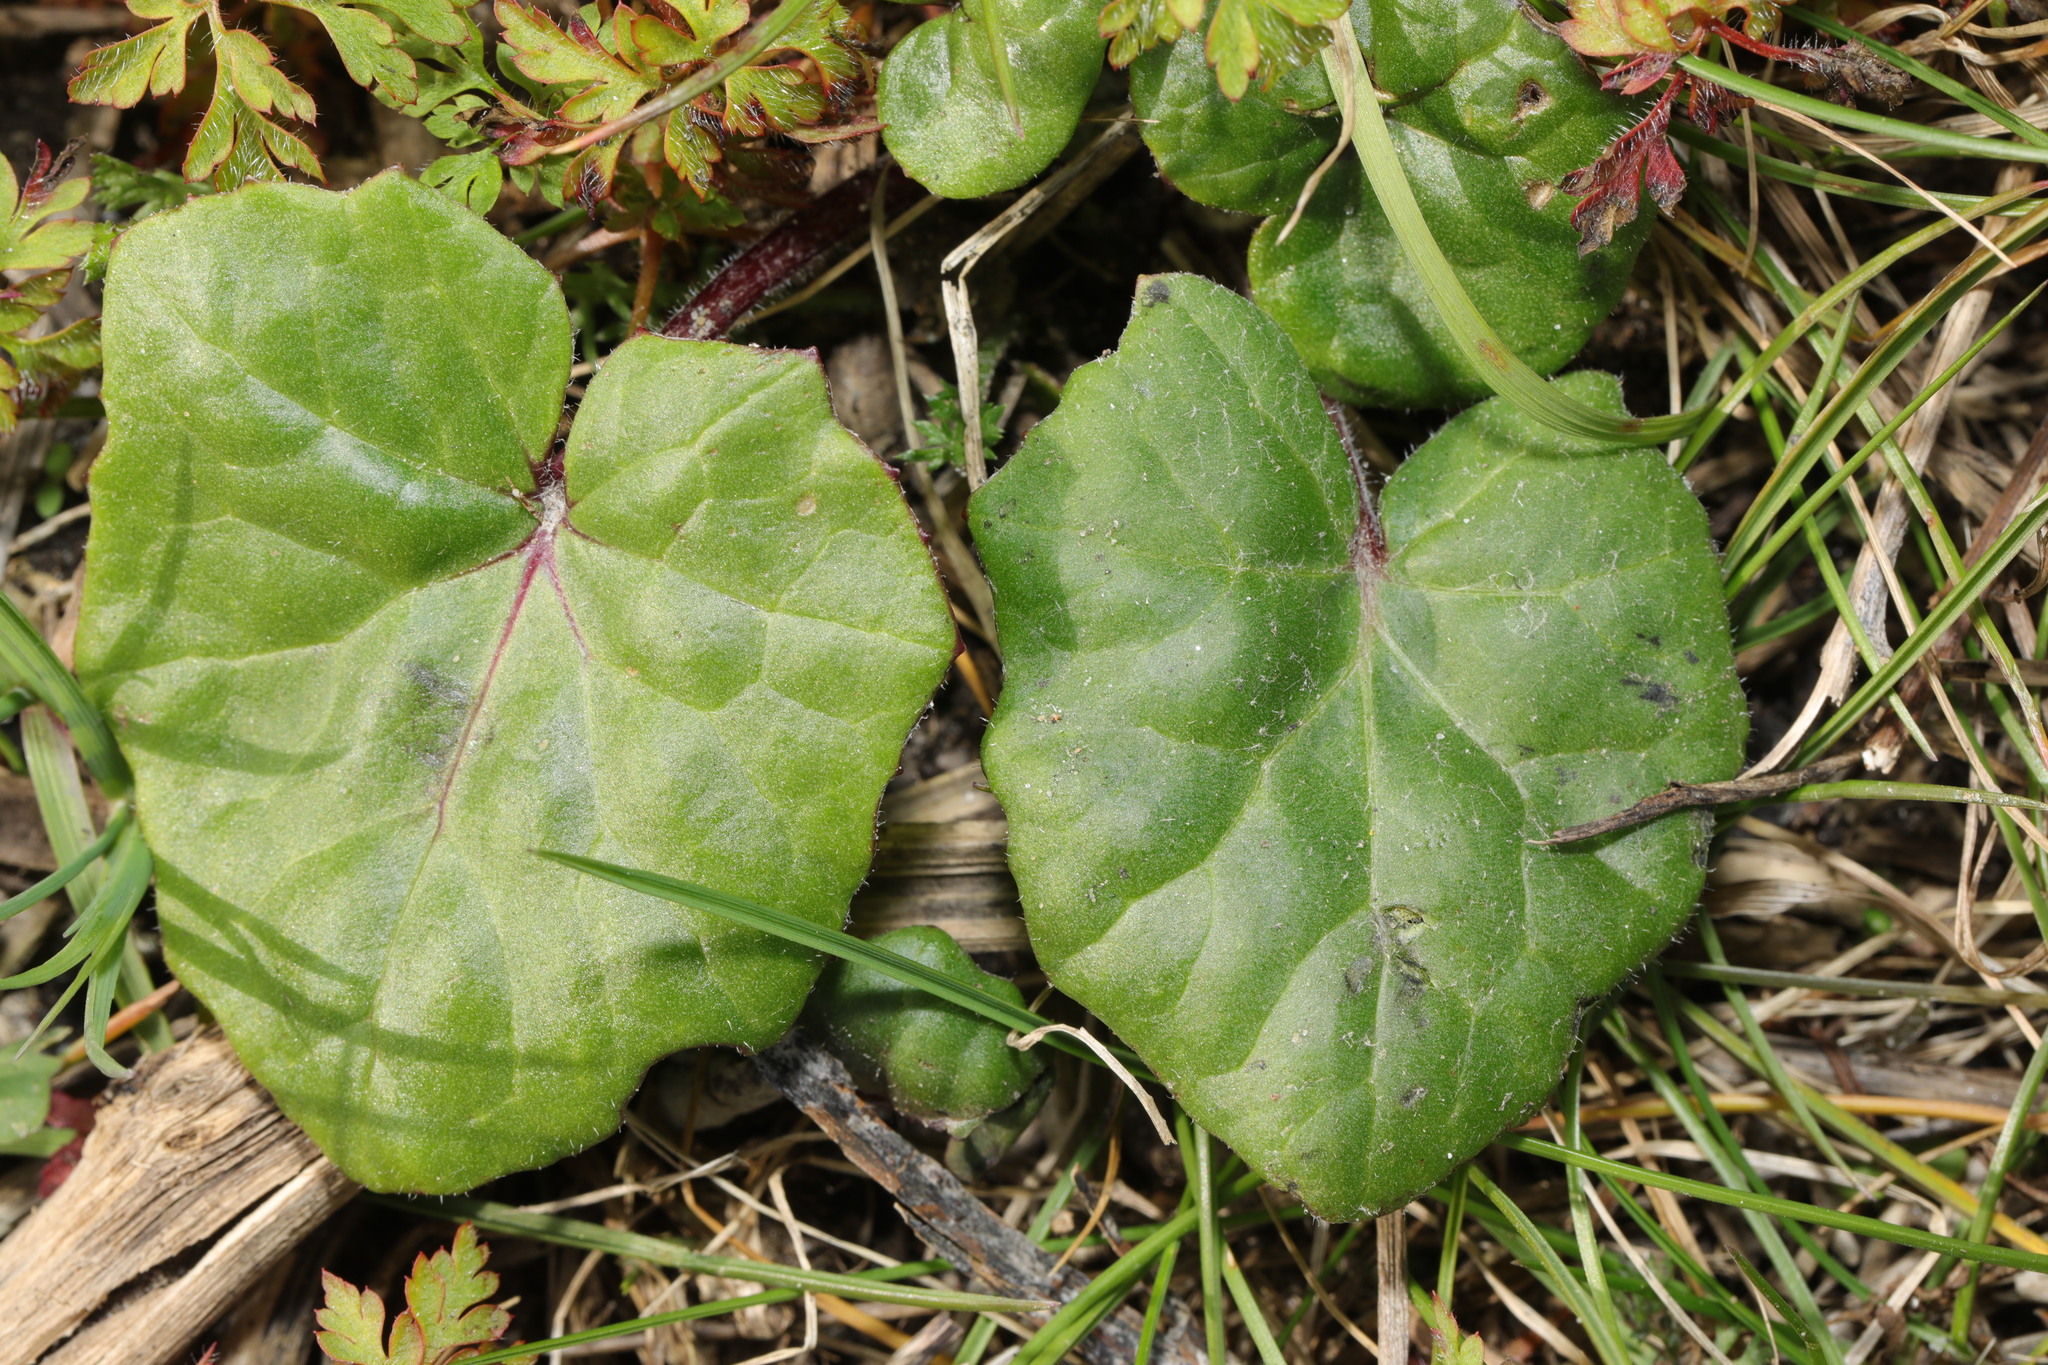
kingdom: Plantae
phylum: Tracheophyta
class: Magnoliopsida
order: Asterales
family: Asteraceae
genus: Tussilago
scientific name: Tussilago farfara
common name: Coltsfoot
